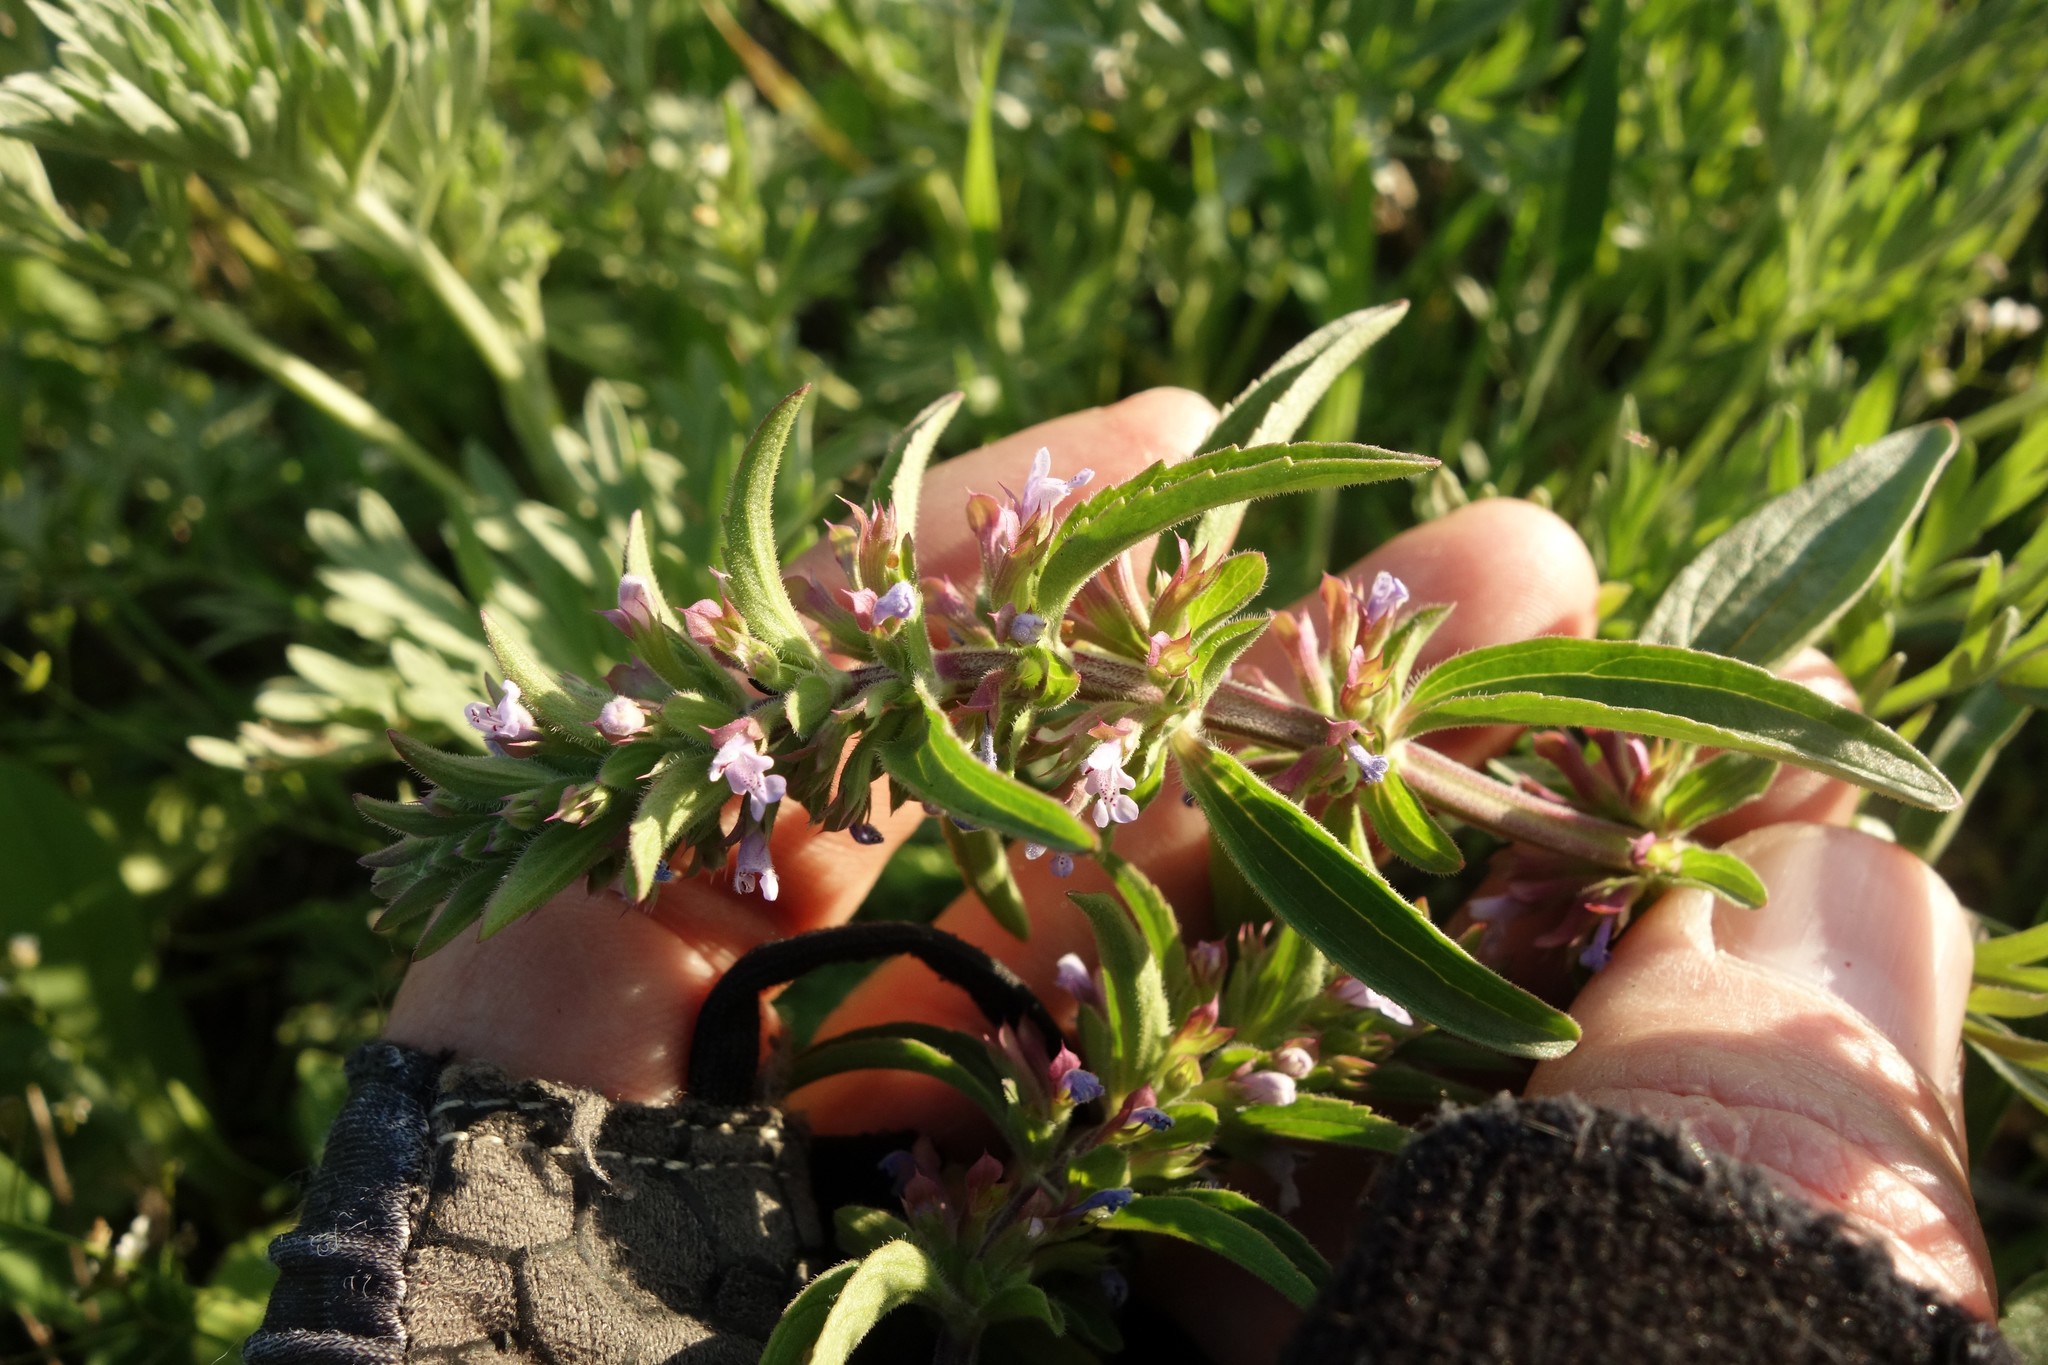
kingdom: Plantae
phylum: Tracheophyta
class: Magnoliopsida
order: Lamiales
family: Lamiaceae
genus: Dracocephalum
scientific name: Dracocephalum thymiflorum
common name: Thymeleaf dragonhead
